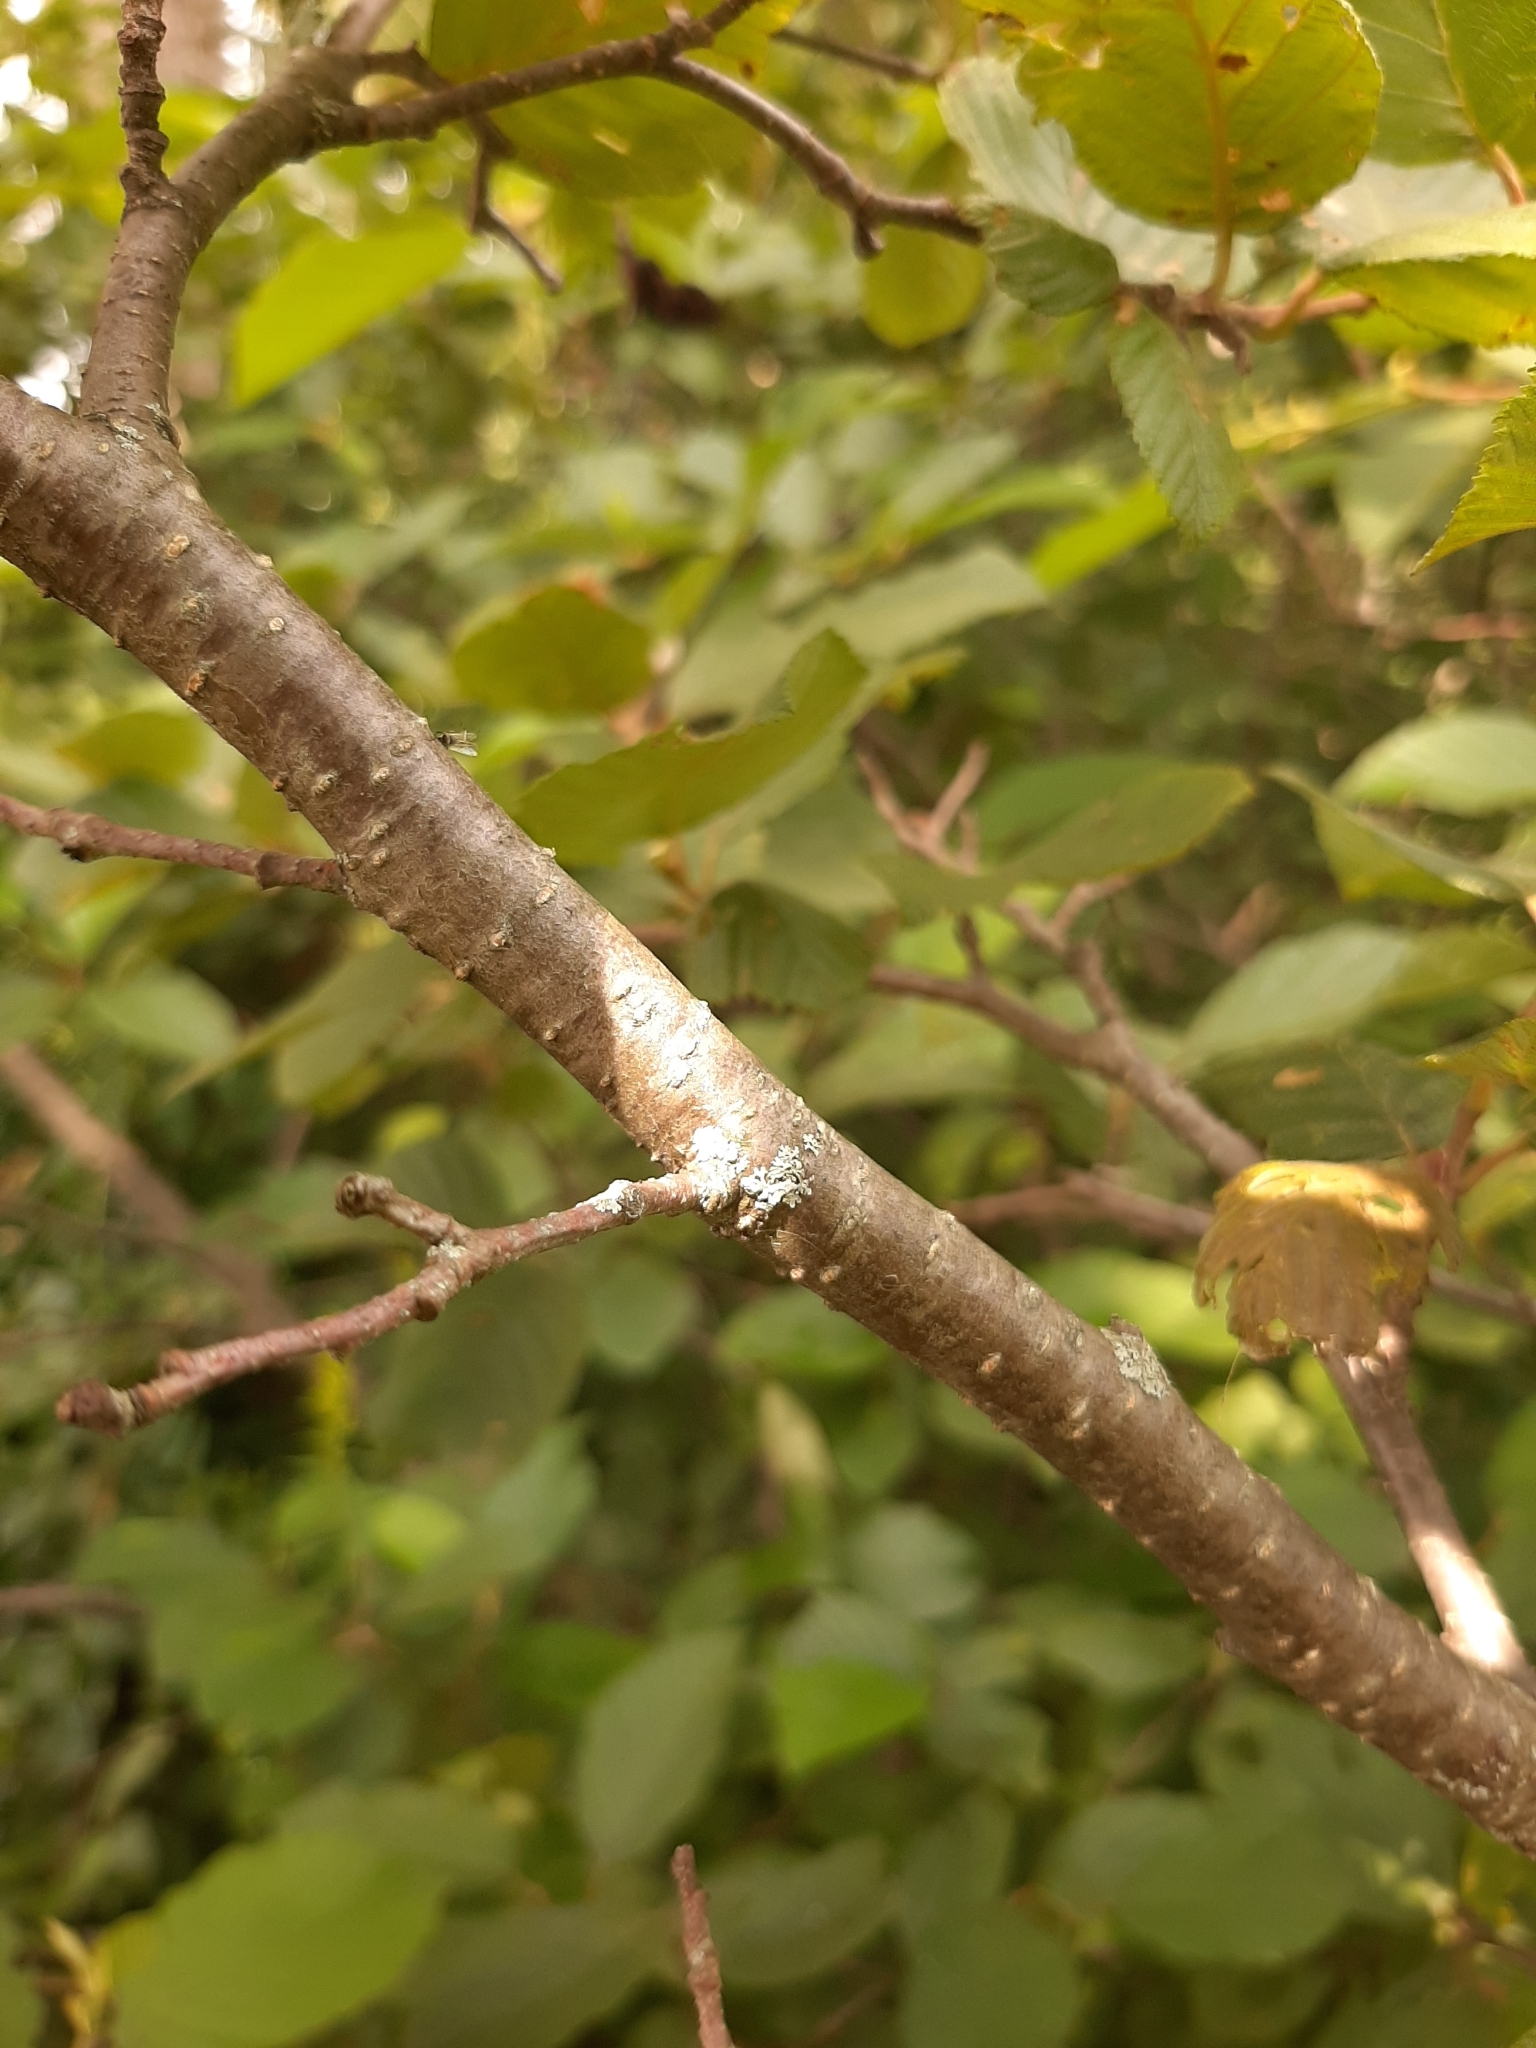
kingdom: Plantae
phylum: Tracheophyta
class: Magnoliopsida
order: Fagales
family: Betulaceae
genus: Alnus
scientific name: Alnus incana
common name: Grey alder
